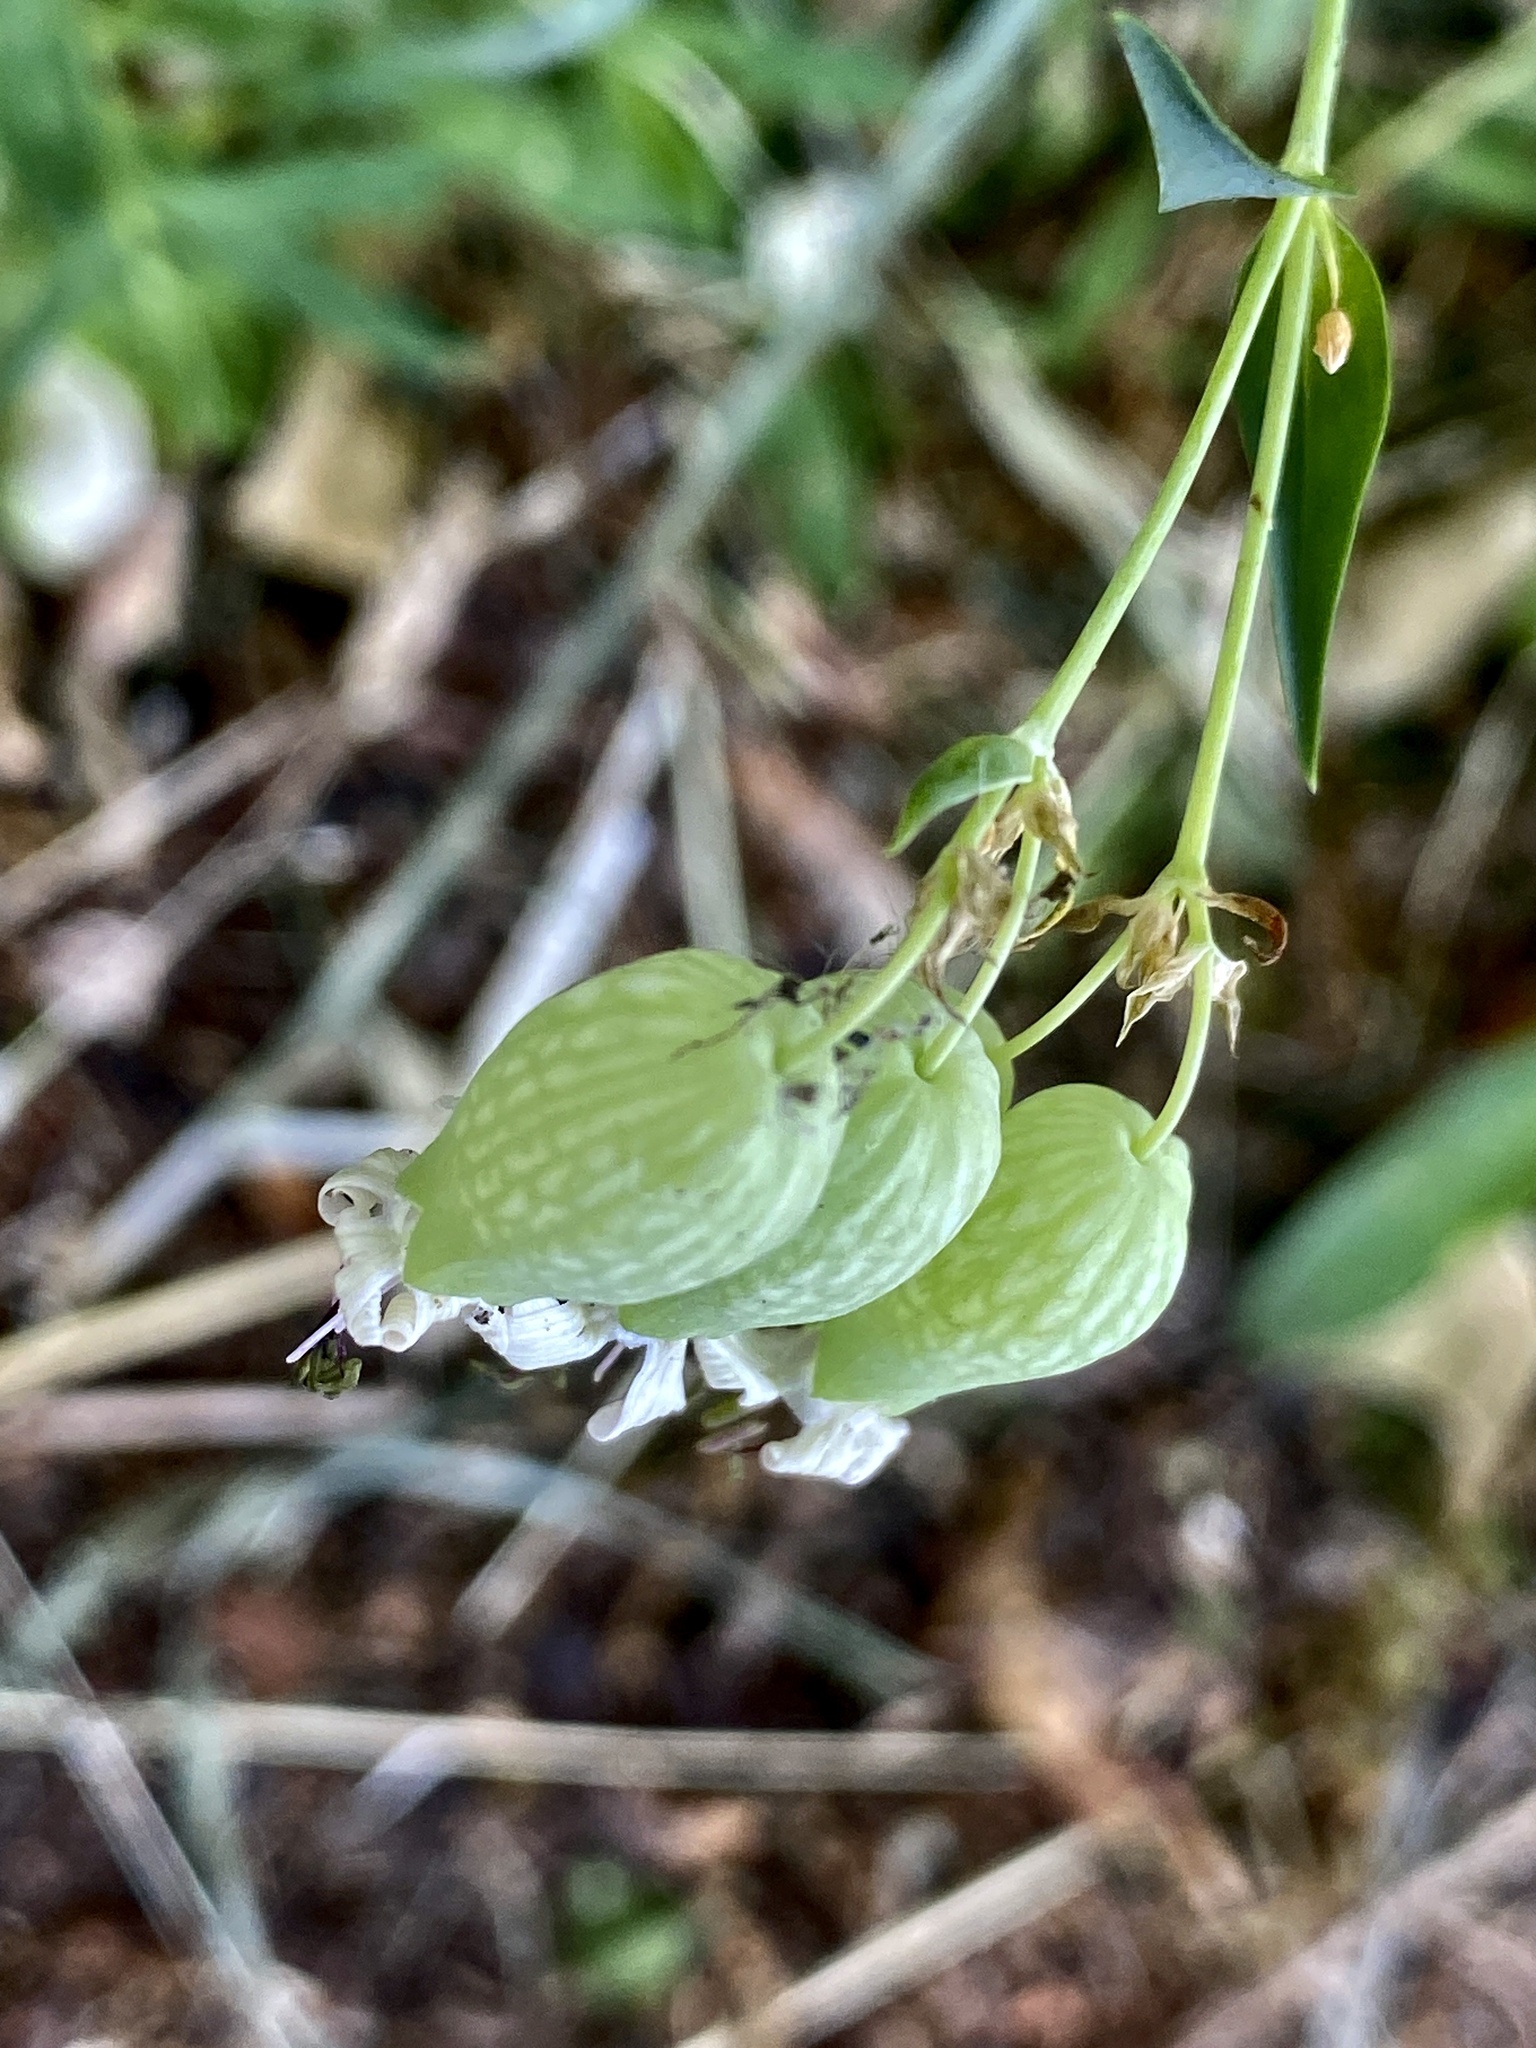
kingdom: Plantae
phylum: Tracheophyta
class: Magnoliopsida
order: Caryophyllales
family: Caryophyllaceae
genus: Silene
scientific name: Silene vulgaris
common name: Bladder campion
